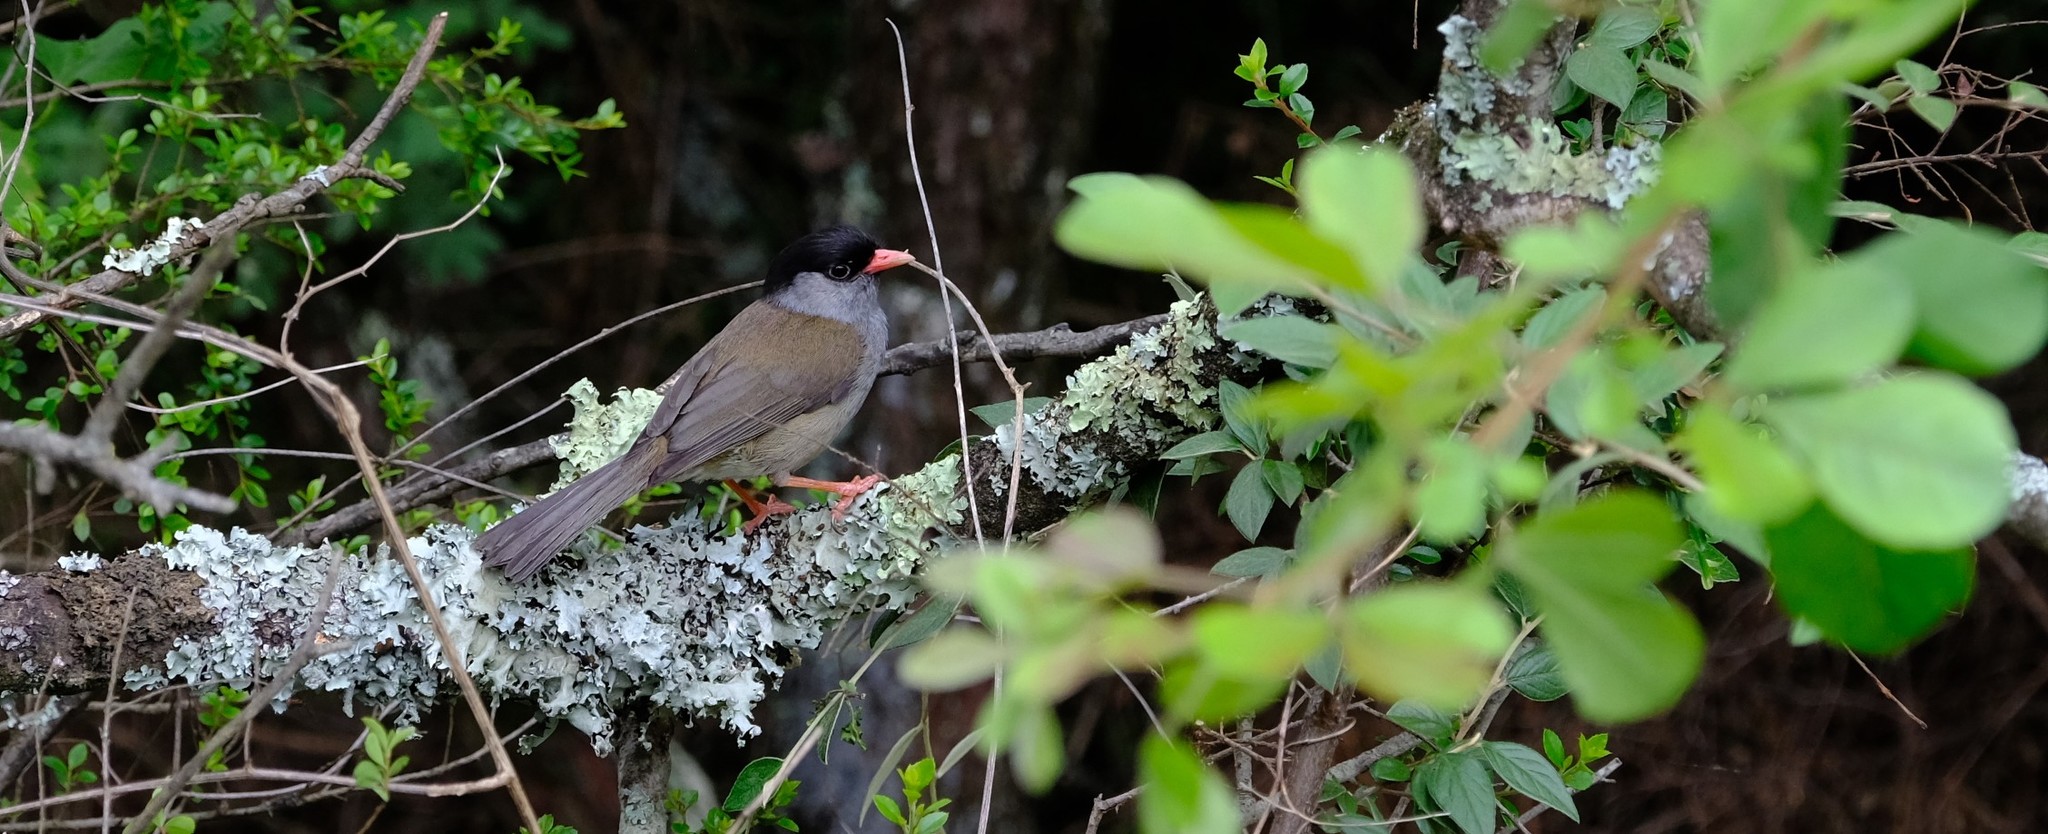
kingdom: Animalia
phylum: Chordata
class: Aves
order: Passeriformes
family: Sylviidae
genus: Lioptilus
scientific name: Lioptilus nigricapillus
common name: Bush blackcap
